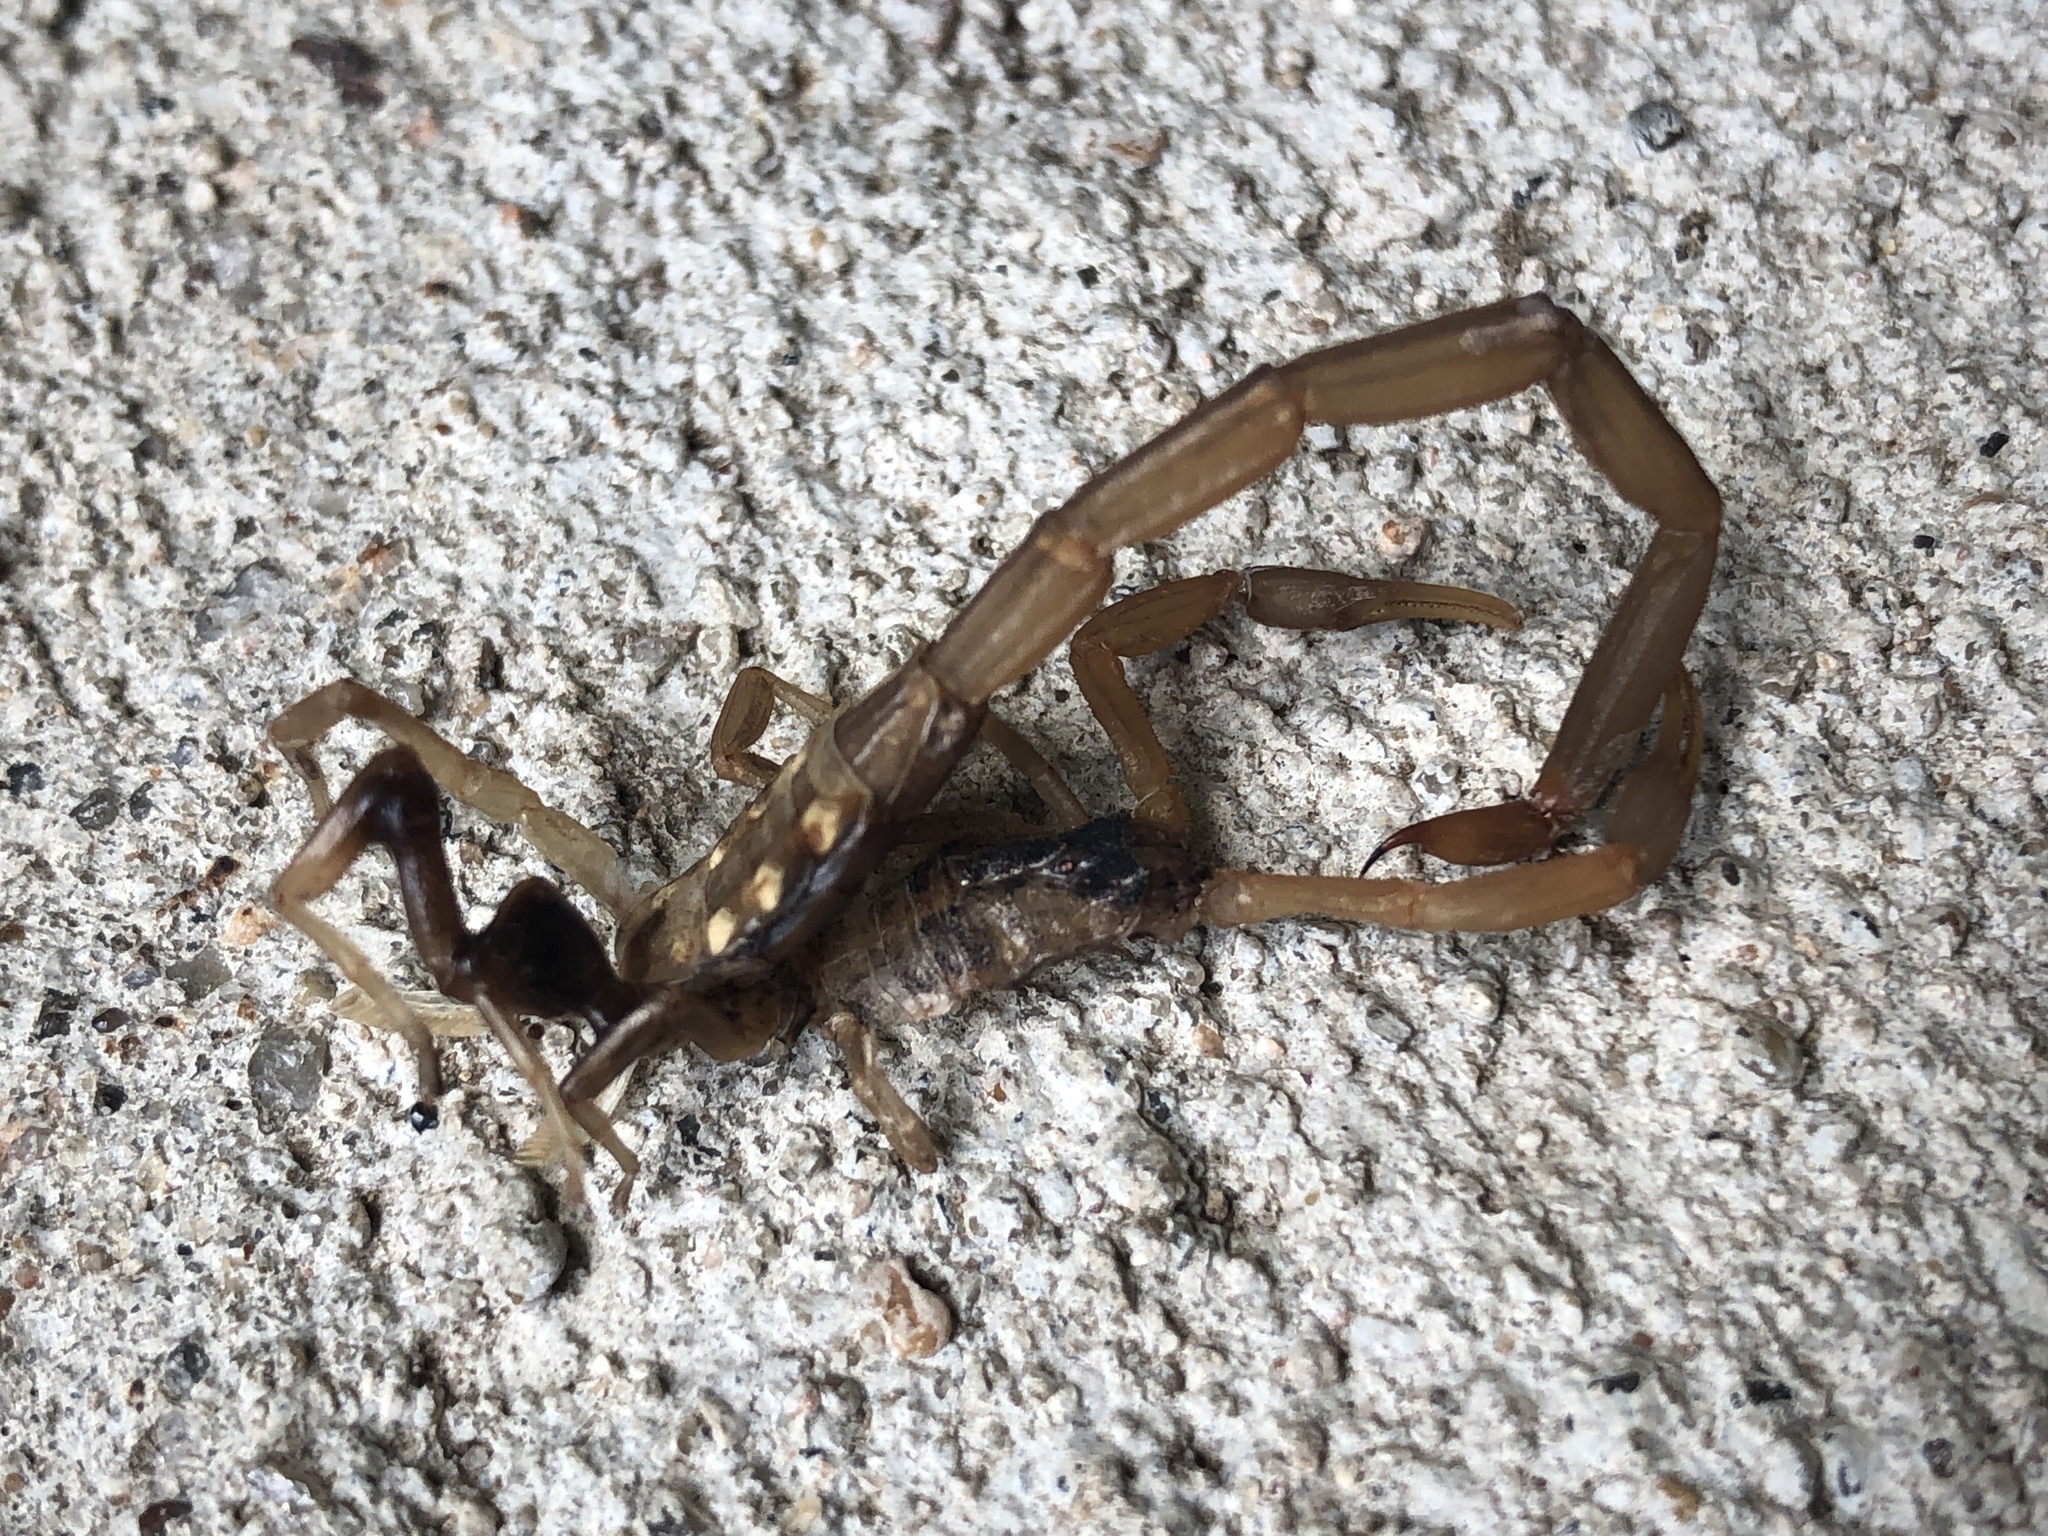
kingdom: Animalia
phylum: Arthropoda
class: Arachnida
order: Scorpiones
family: Buthidae
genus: Centruroides
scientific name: Centruroides vittatus
